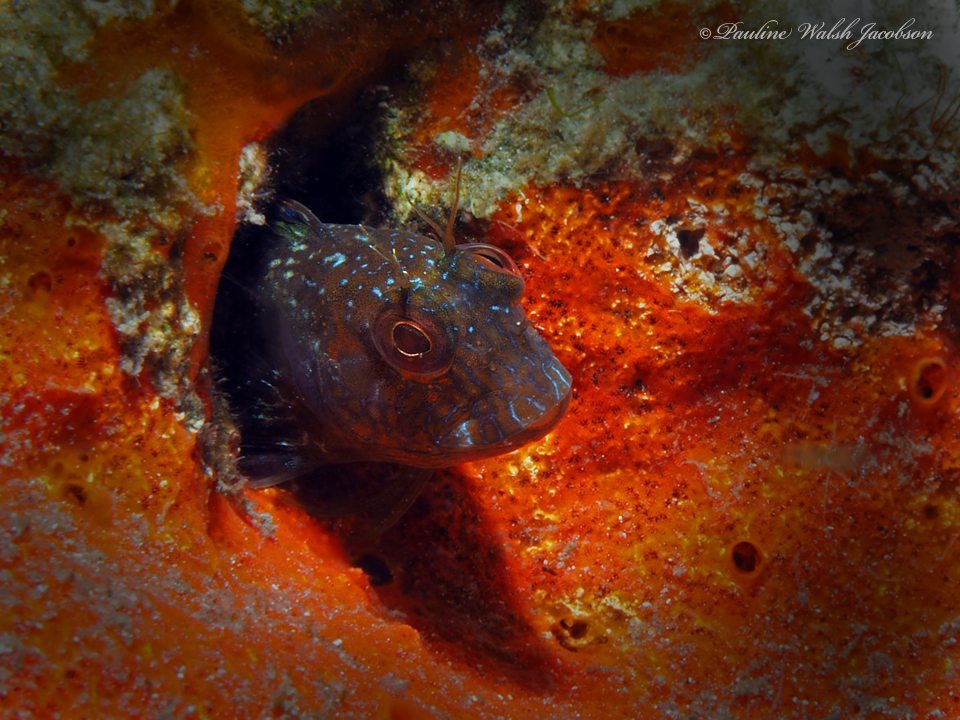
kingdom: Animalia
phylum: Chordata
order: Perciformes
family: Blenniidae
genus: Parablennius
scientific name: Parablennius marmoreus
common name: Seaweed blenny
